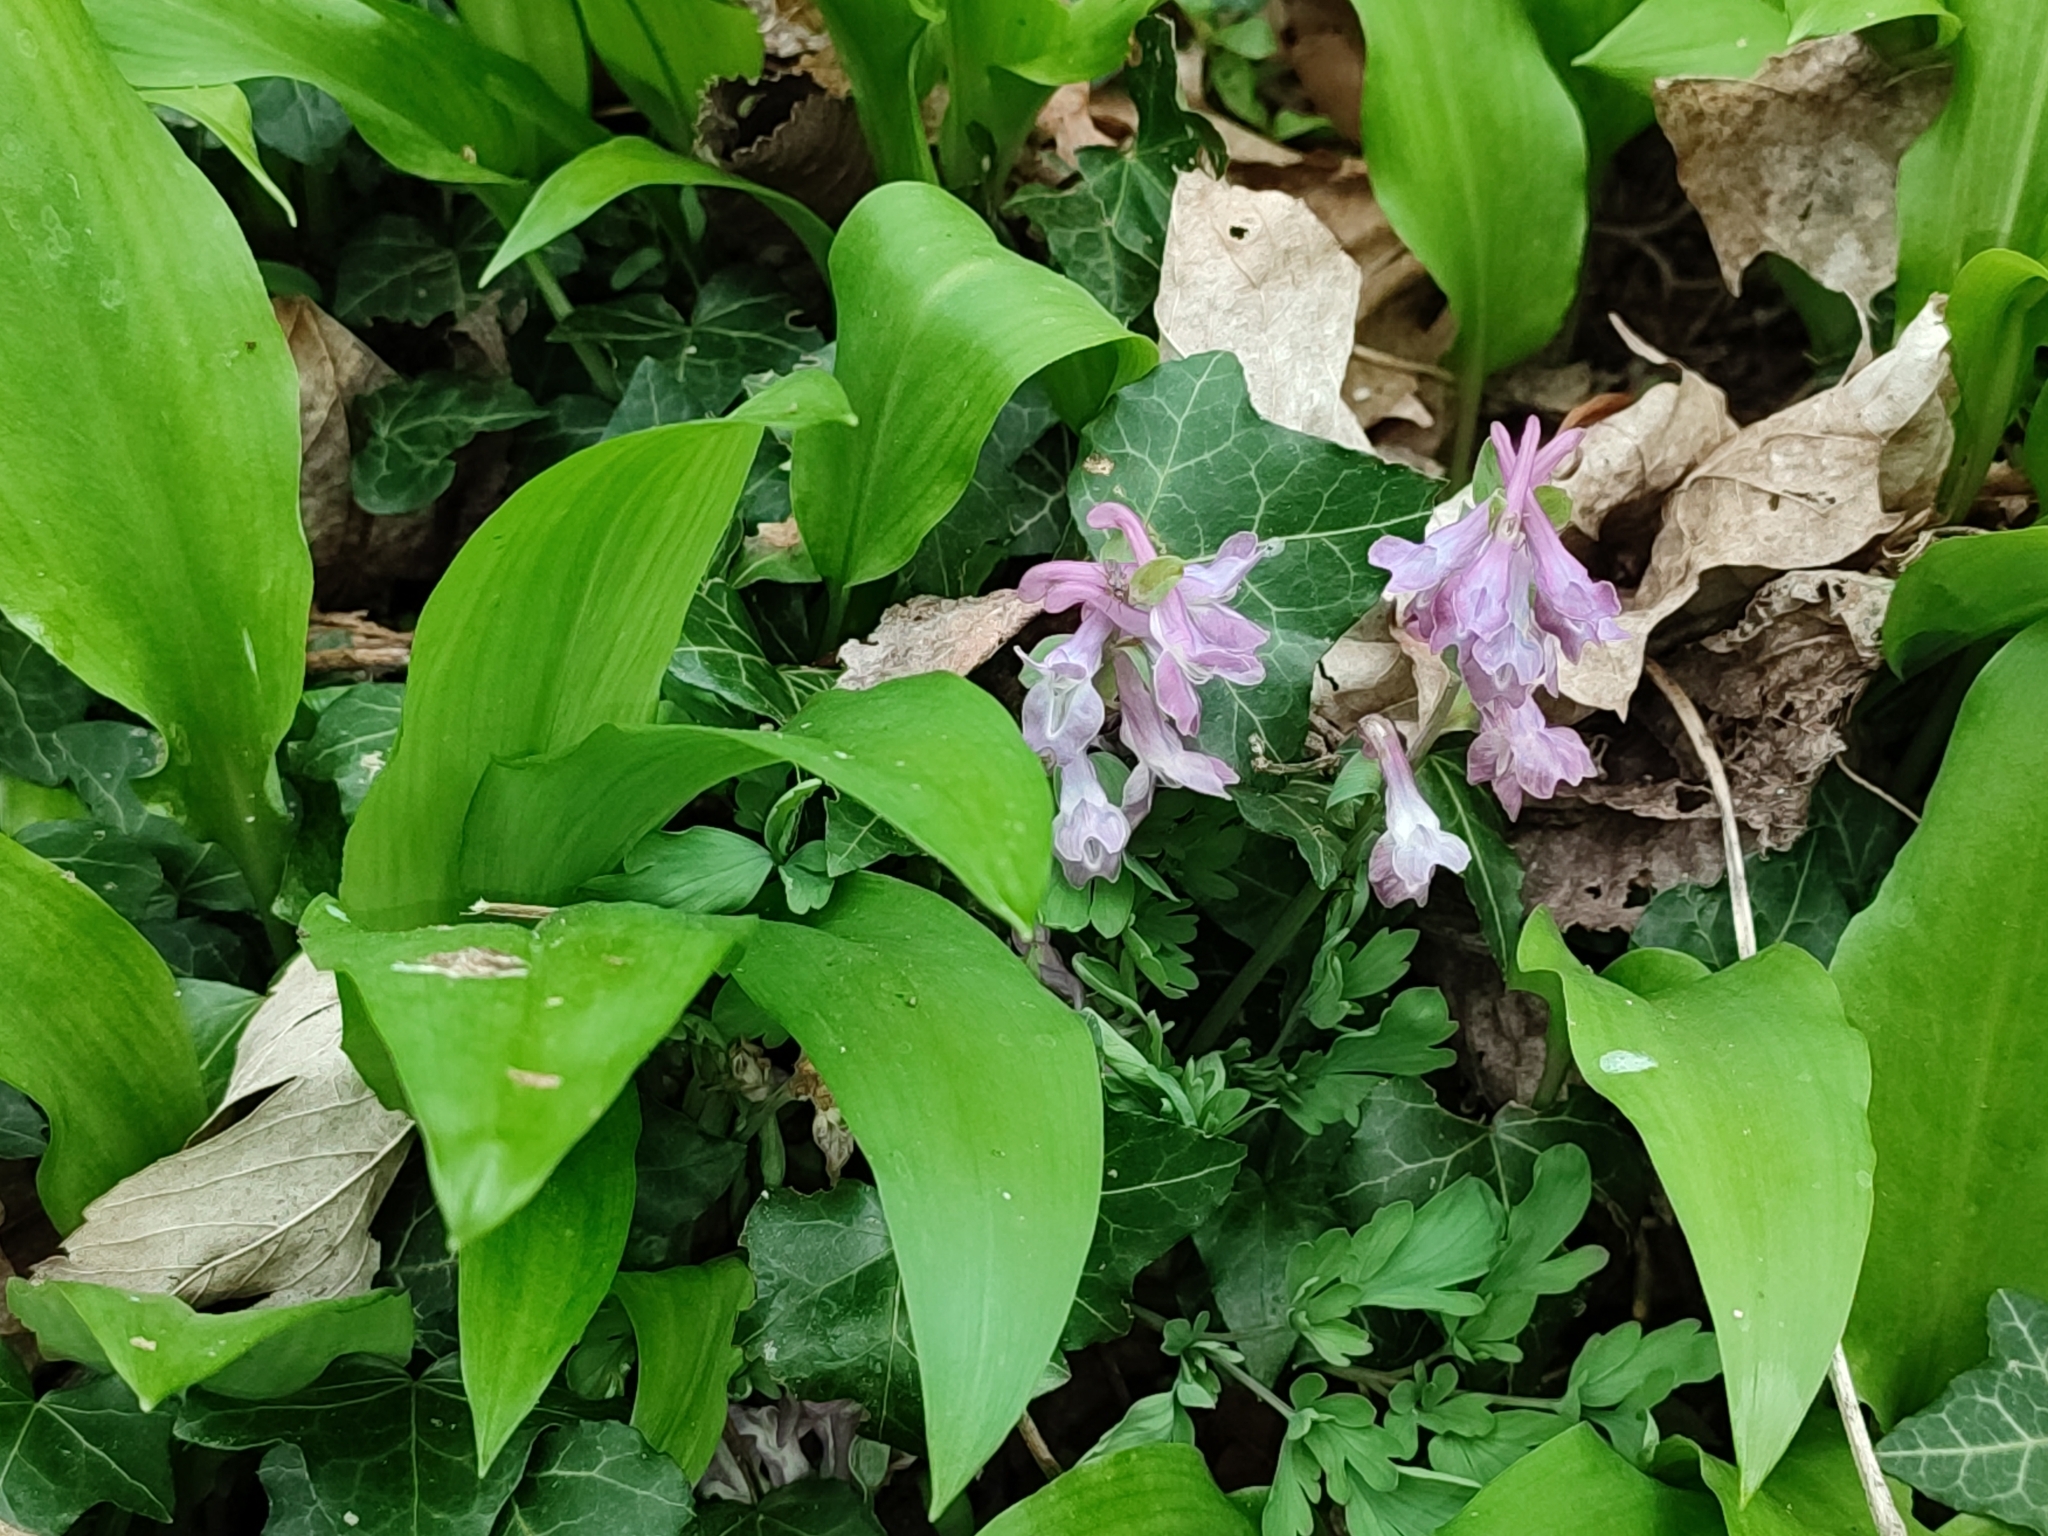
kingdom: Plantae
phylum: Tracheophyta
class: Magnoliopsida
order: Ranunculales
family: Papaveraceae
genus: Corydalis
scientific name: Corydalis cava
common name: Hollowroot
